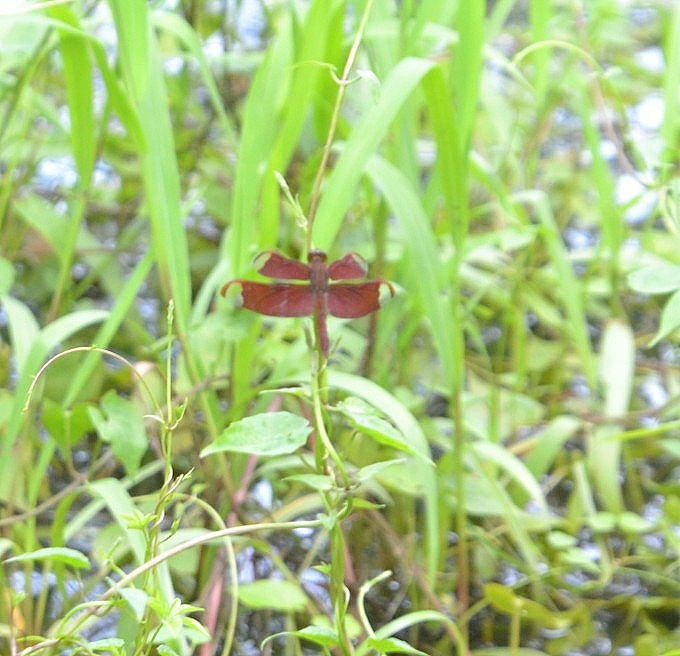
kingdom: Animalia
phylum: Arthropoda
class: Insecta
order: Odonata
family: Libellulidae
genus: Neurothemis
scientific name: Neurothemis fulvia
